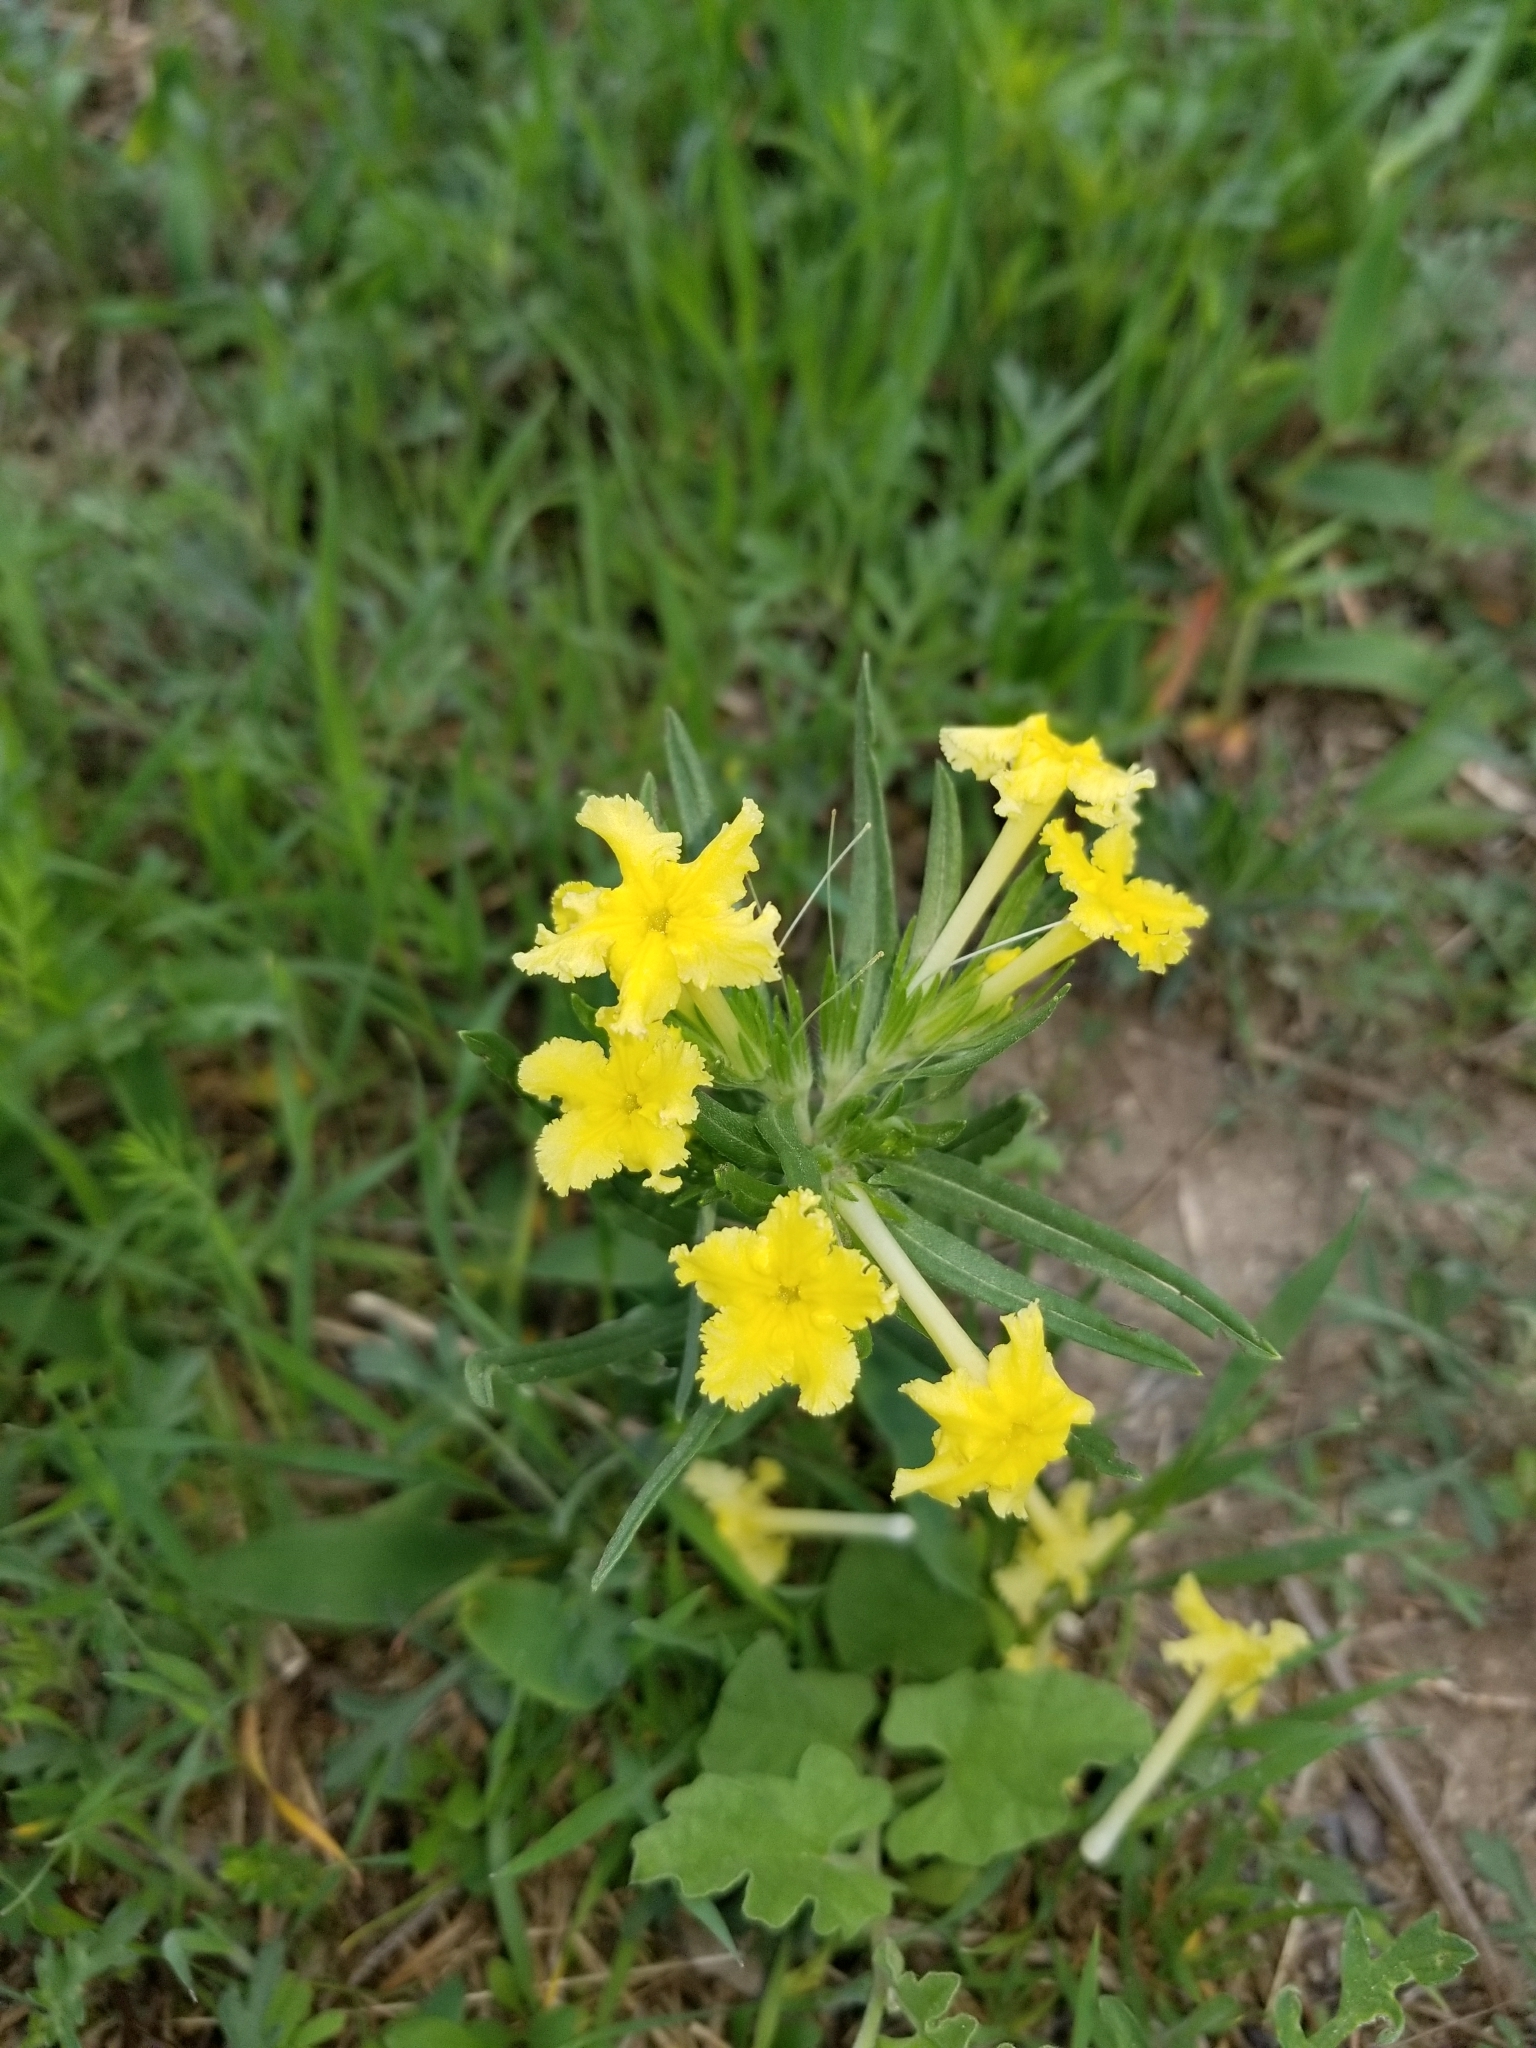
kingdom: Plantae
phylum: Tracheophyta
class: Magnoliopsida
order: Boraginales
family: Boraginaceae
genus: Lithospermum
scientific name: Lithospermum incisum
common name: Fringed gromwell
